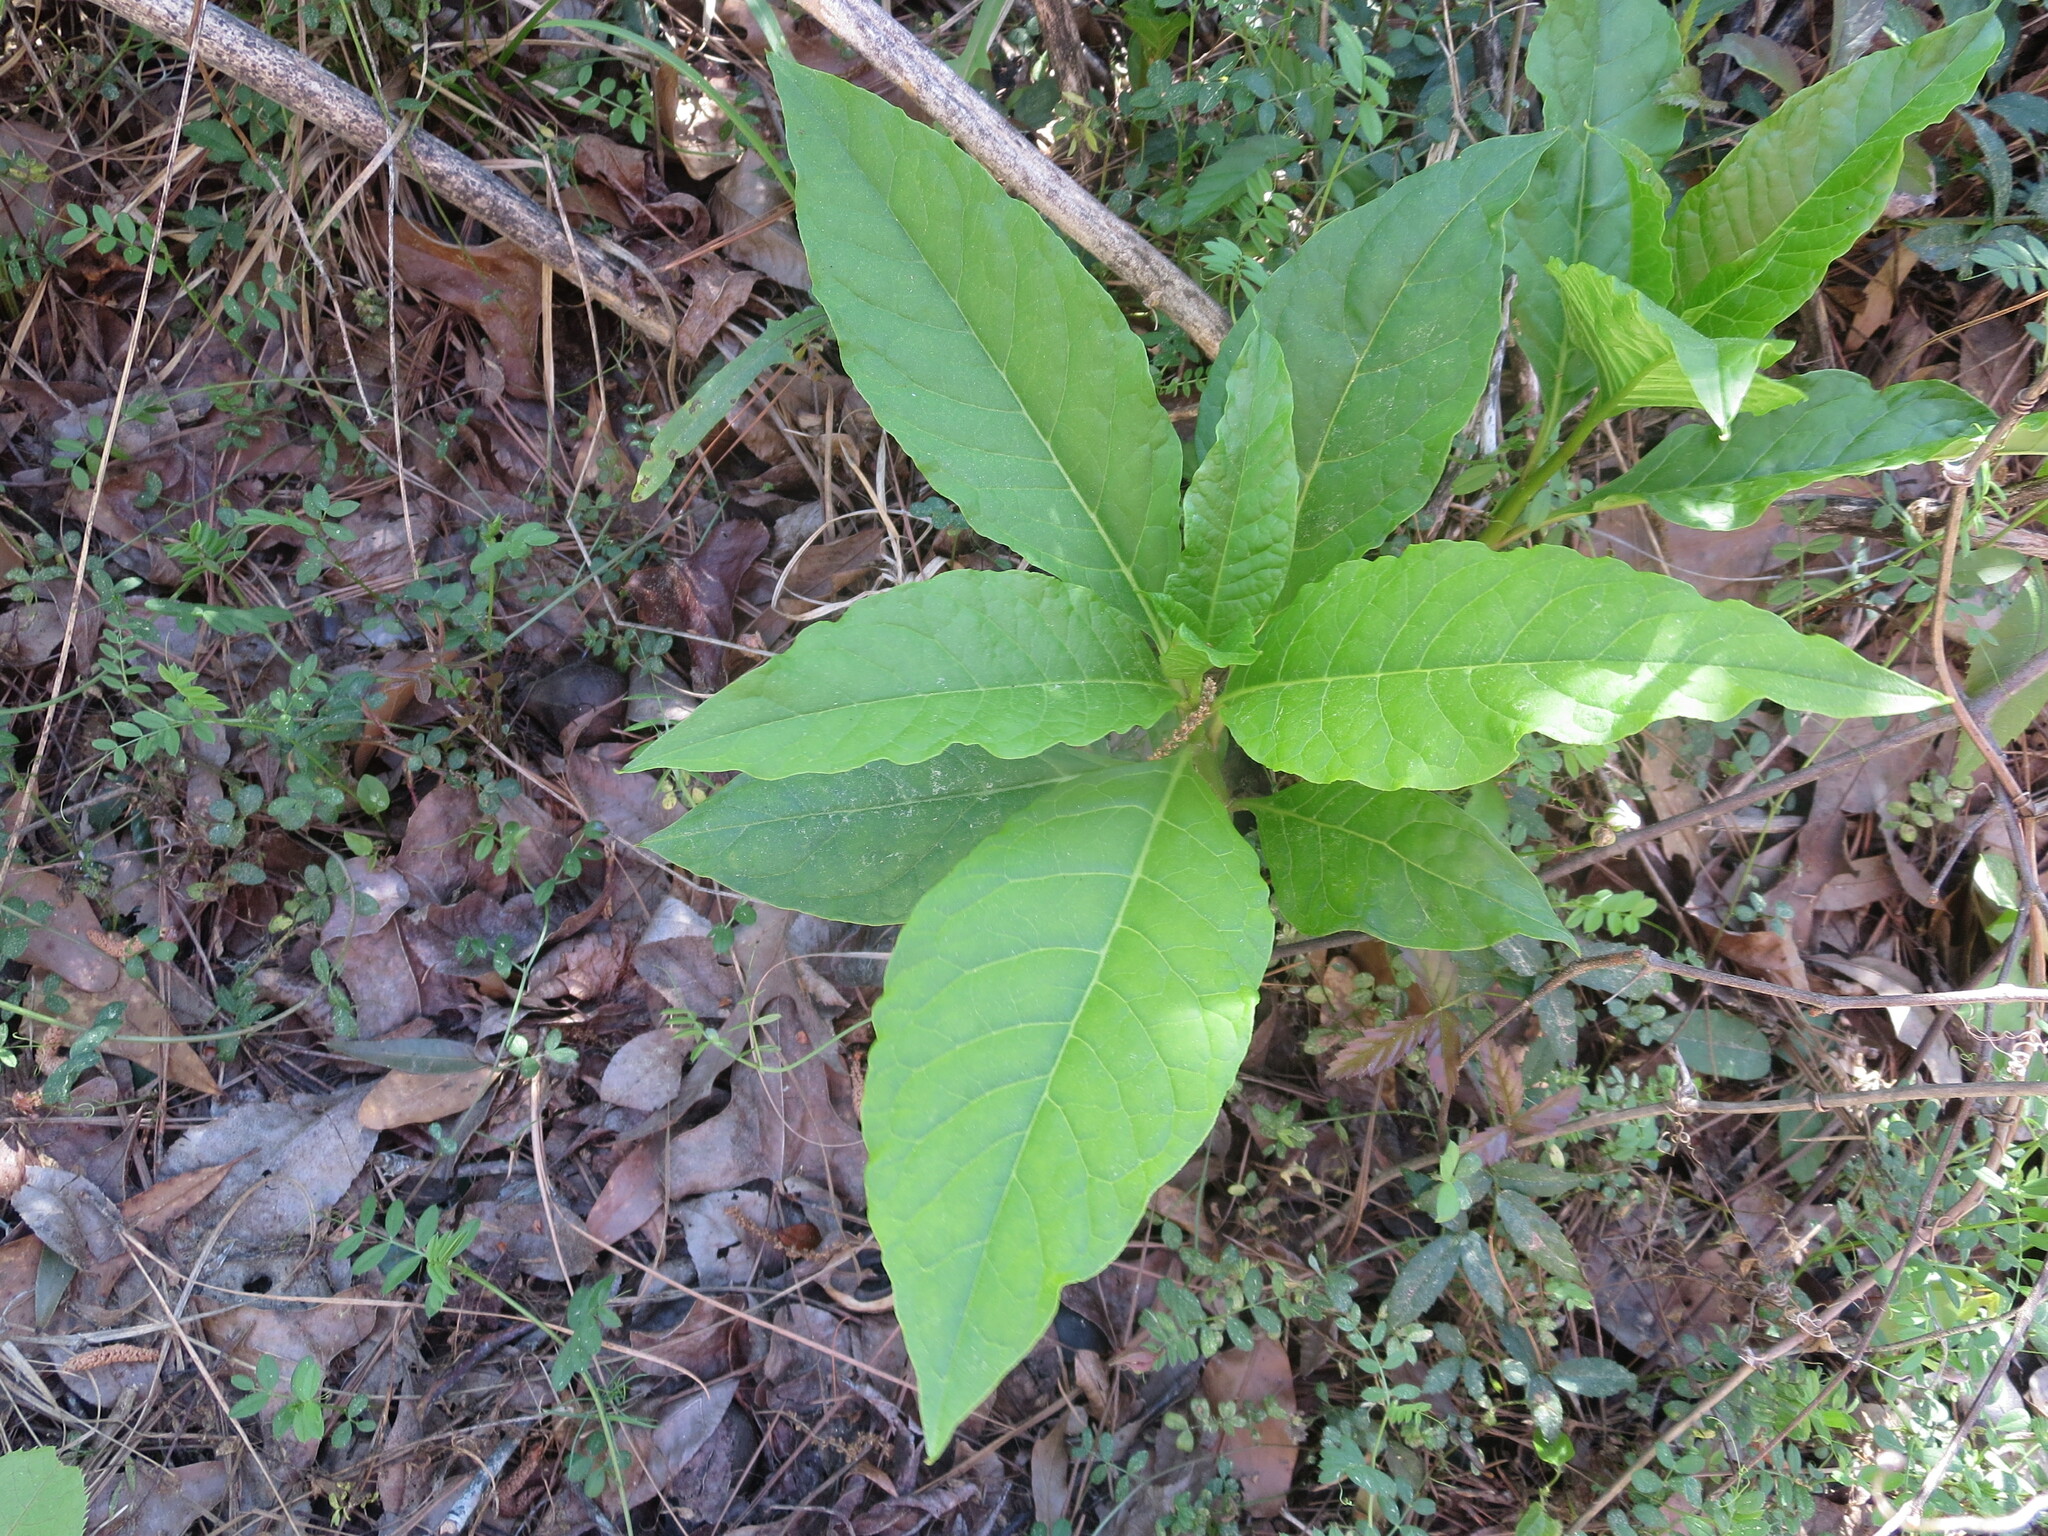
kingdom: Plantae
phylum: Tracheophyta
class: Magnoliopsida
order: Caryophyllales
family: Phytolaccaceae
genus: Phytolacca
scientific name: Phytolacca americana
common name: American pokeweed
